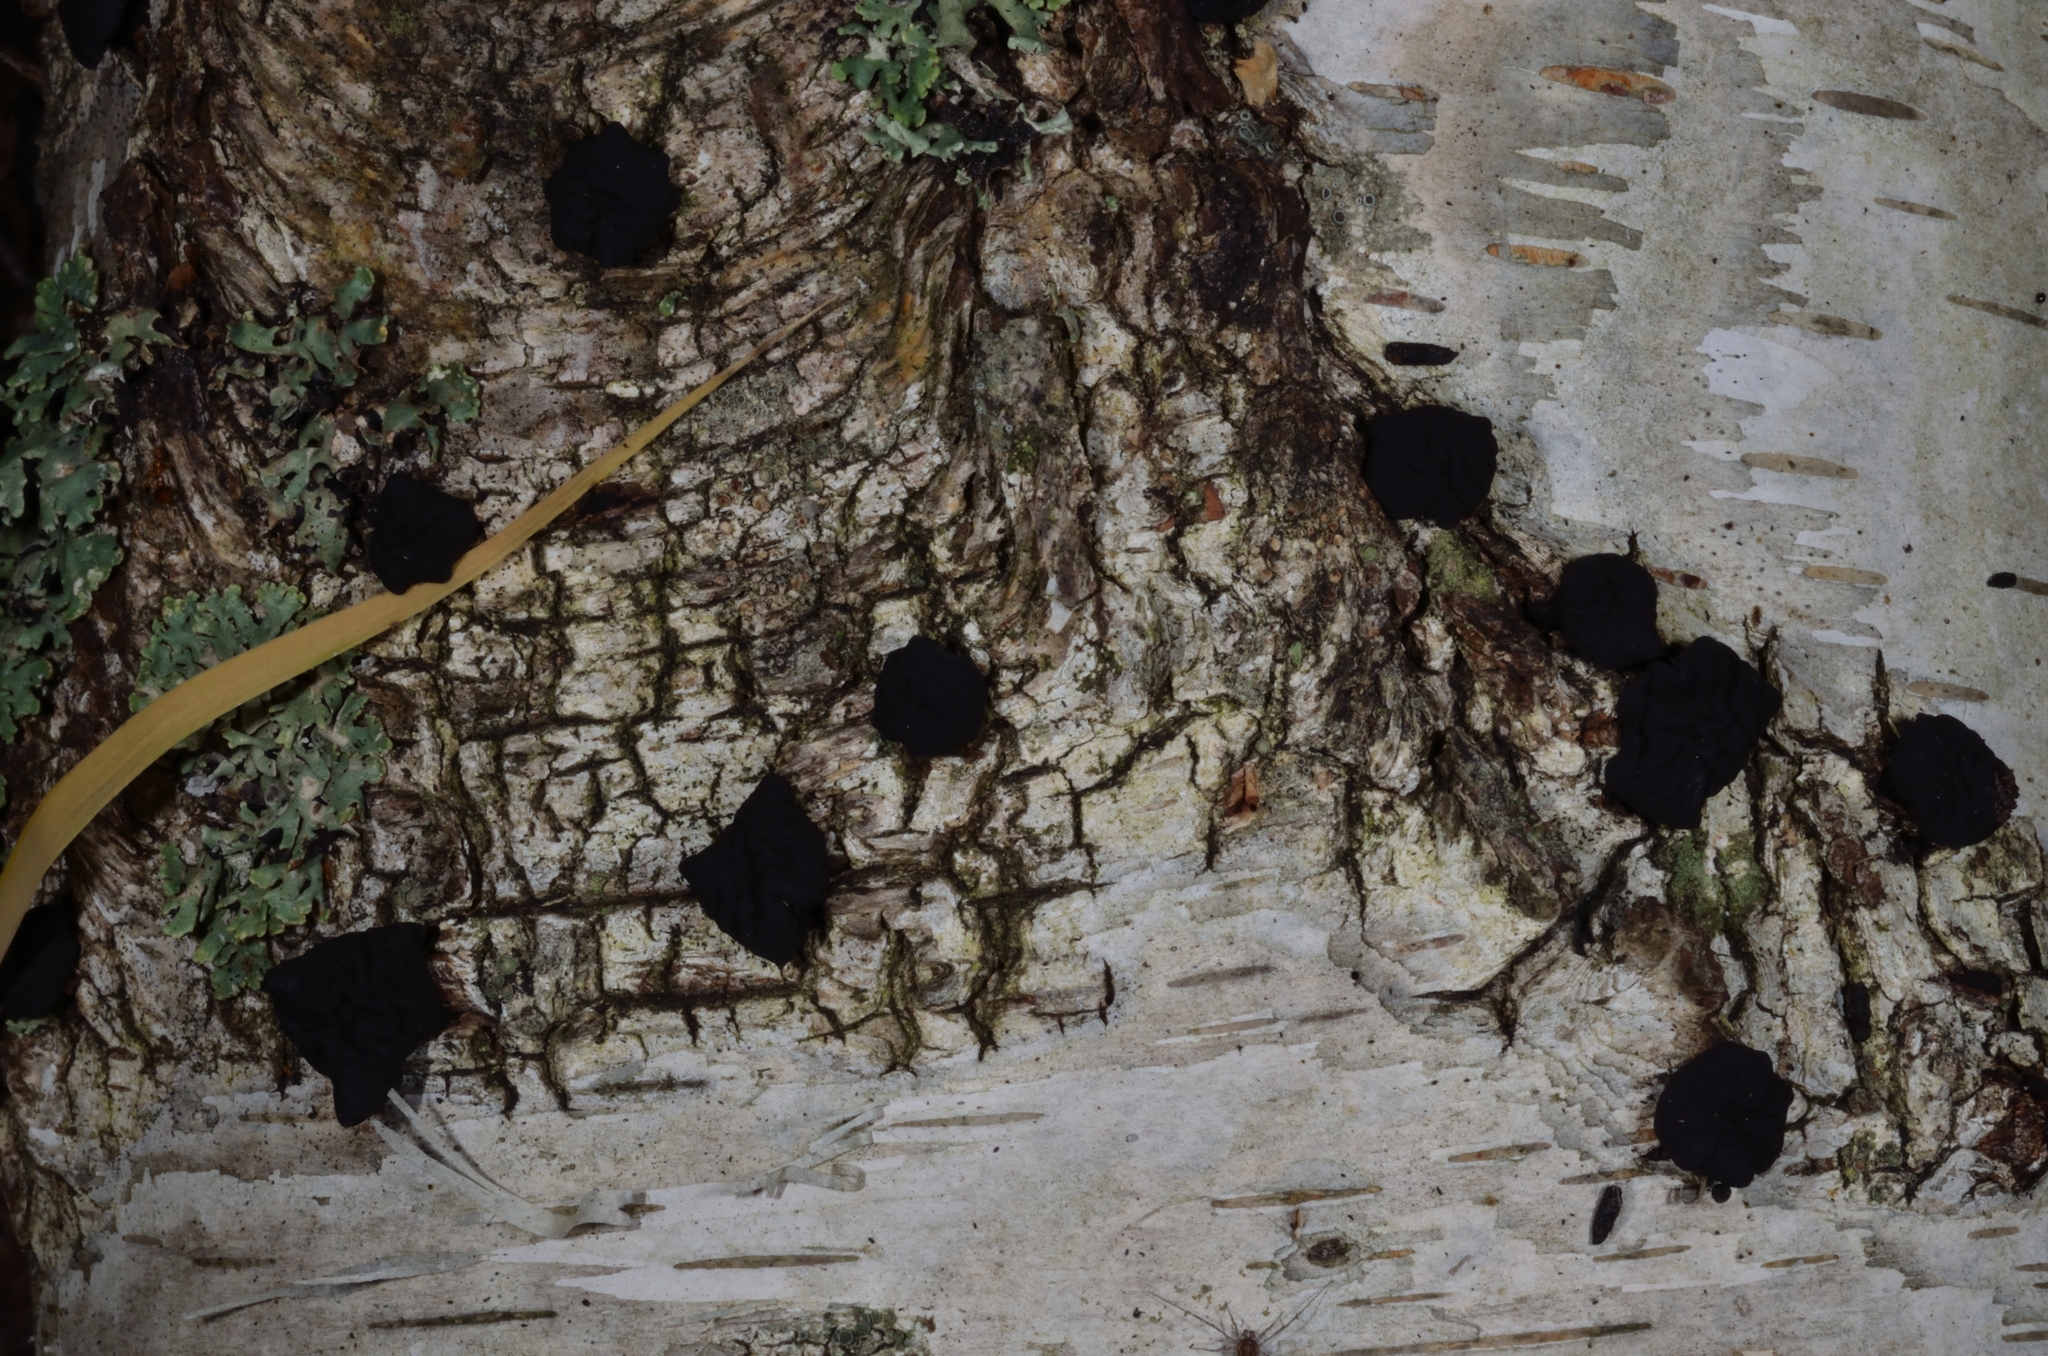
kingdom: Fungi
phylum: Ascomycota
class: Leotiomycetes
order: Phacidiales
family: Phacidiaceae
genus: Bulgaria
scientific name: Bulgaria inquinans
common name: Black bulgar
